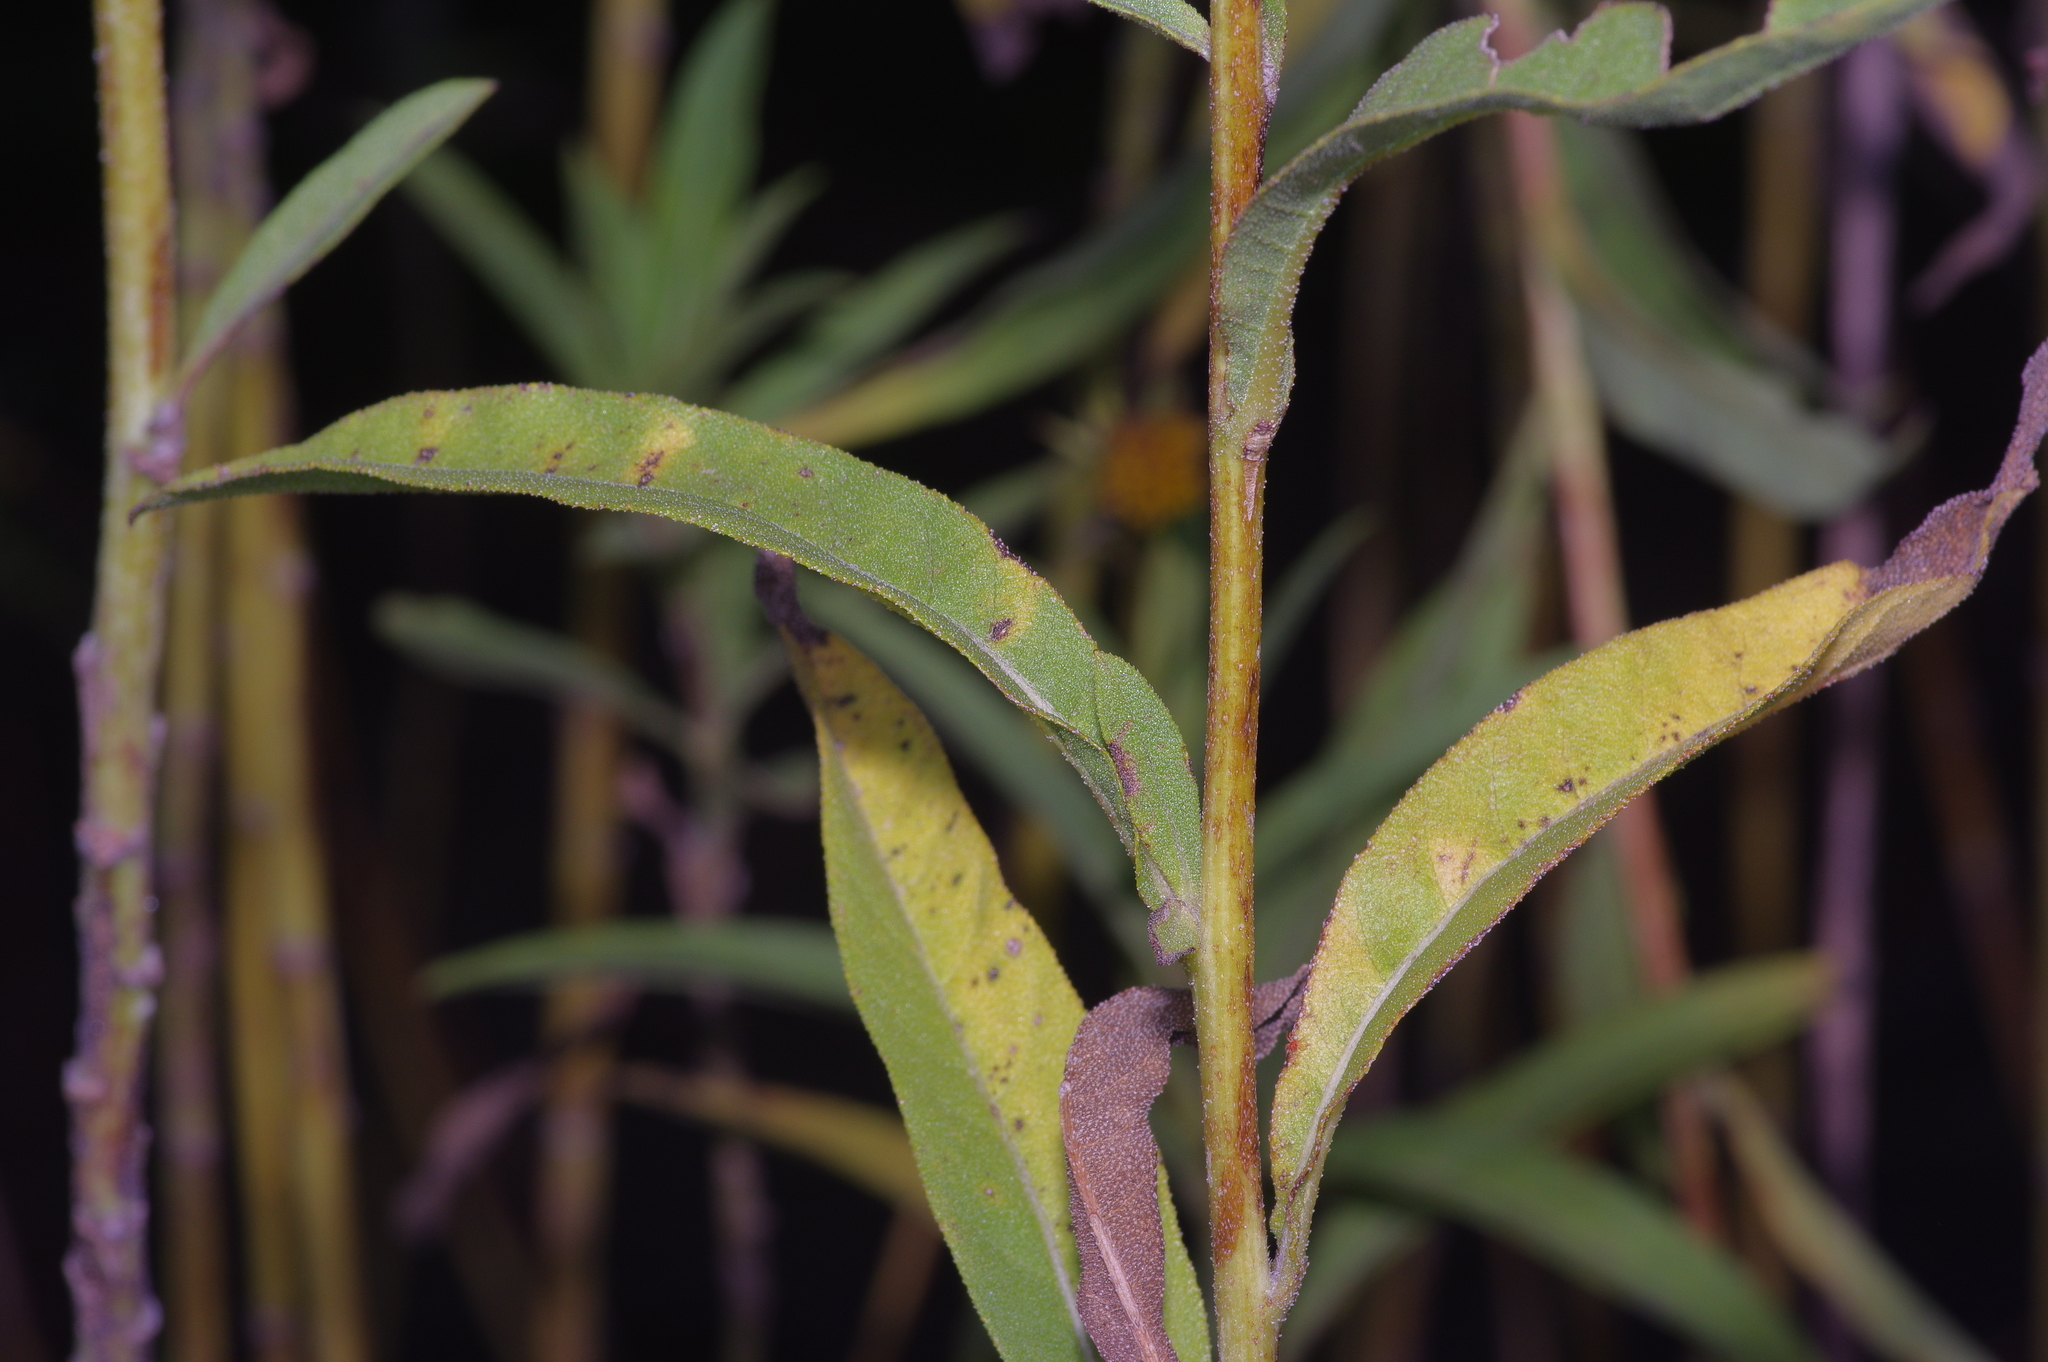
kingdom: Plantae
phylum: Tracheophyta
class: Magnoliopsida
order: Asterales
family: Asteraceae
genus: Helianthus
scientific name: Helianthus maximiliani
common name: Maximilian's sunflower
